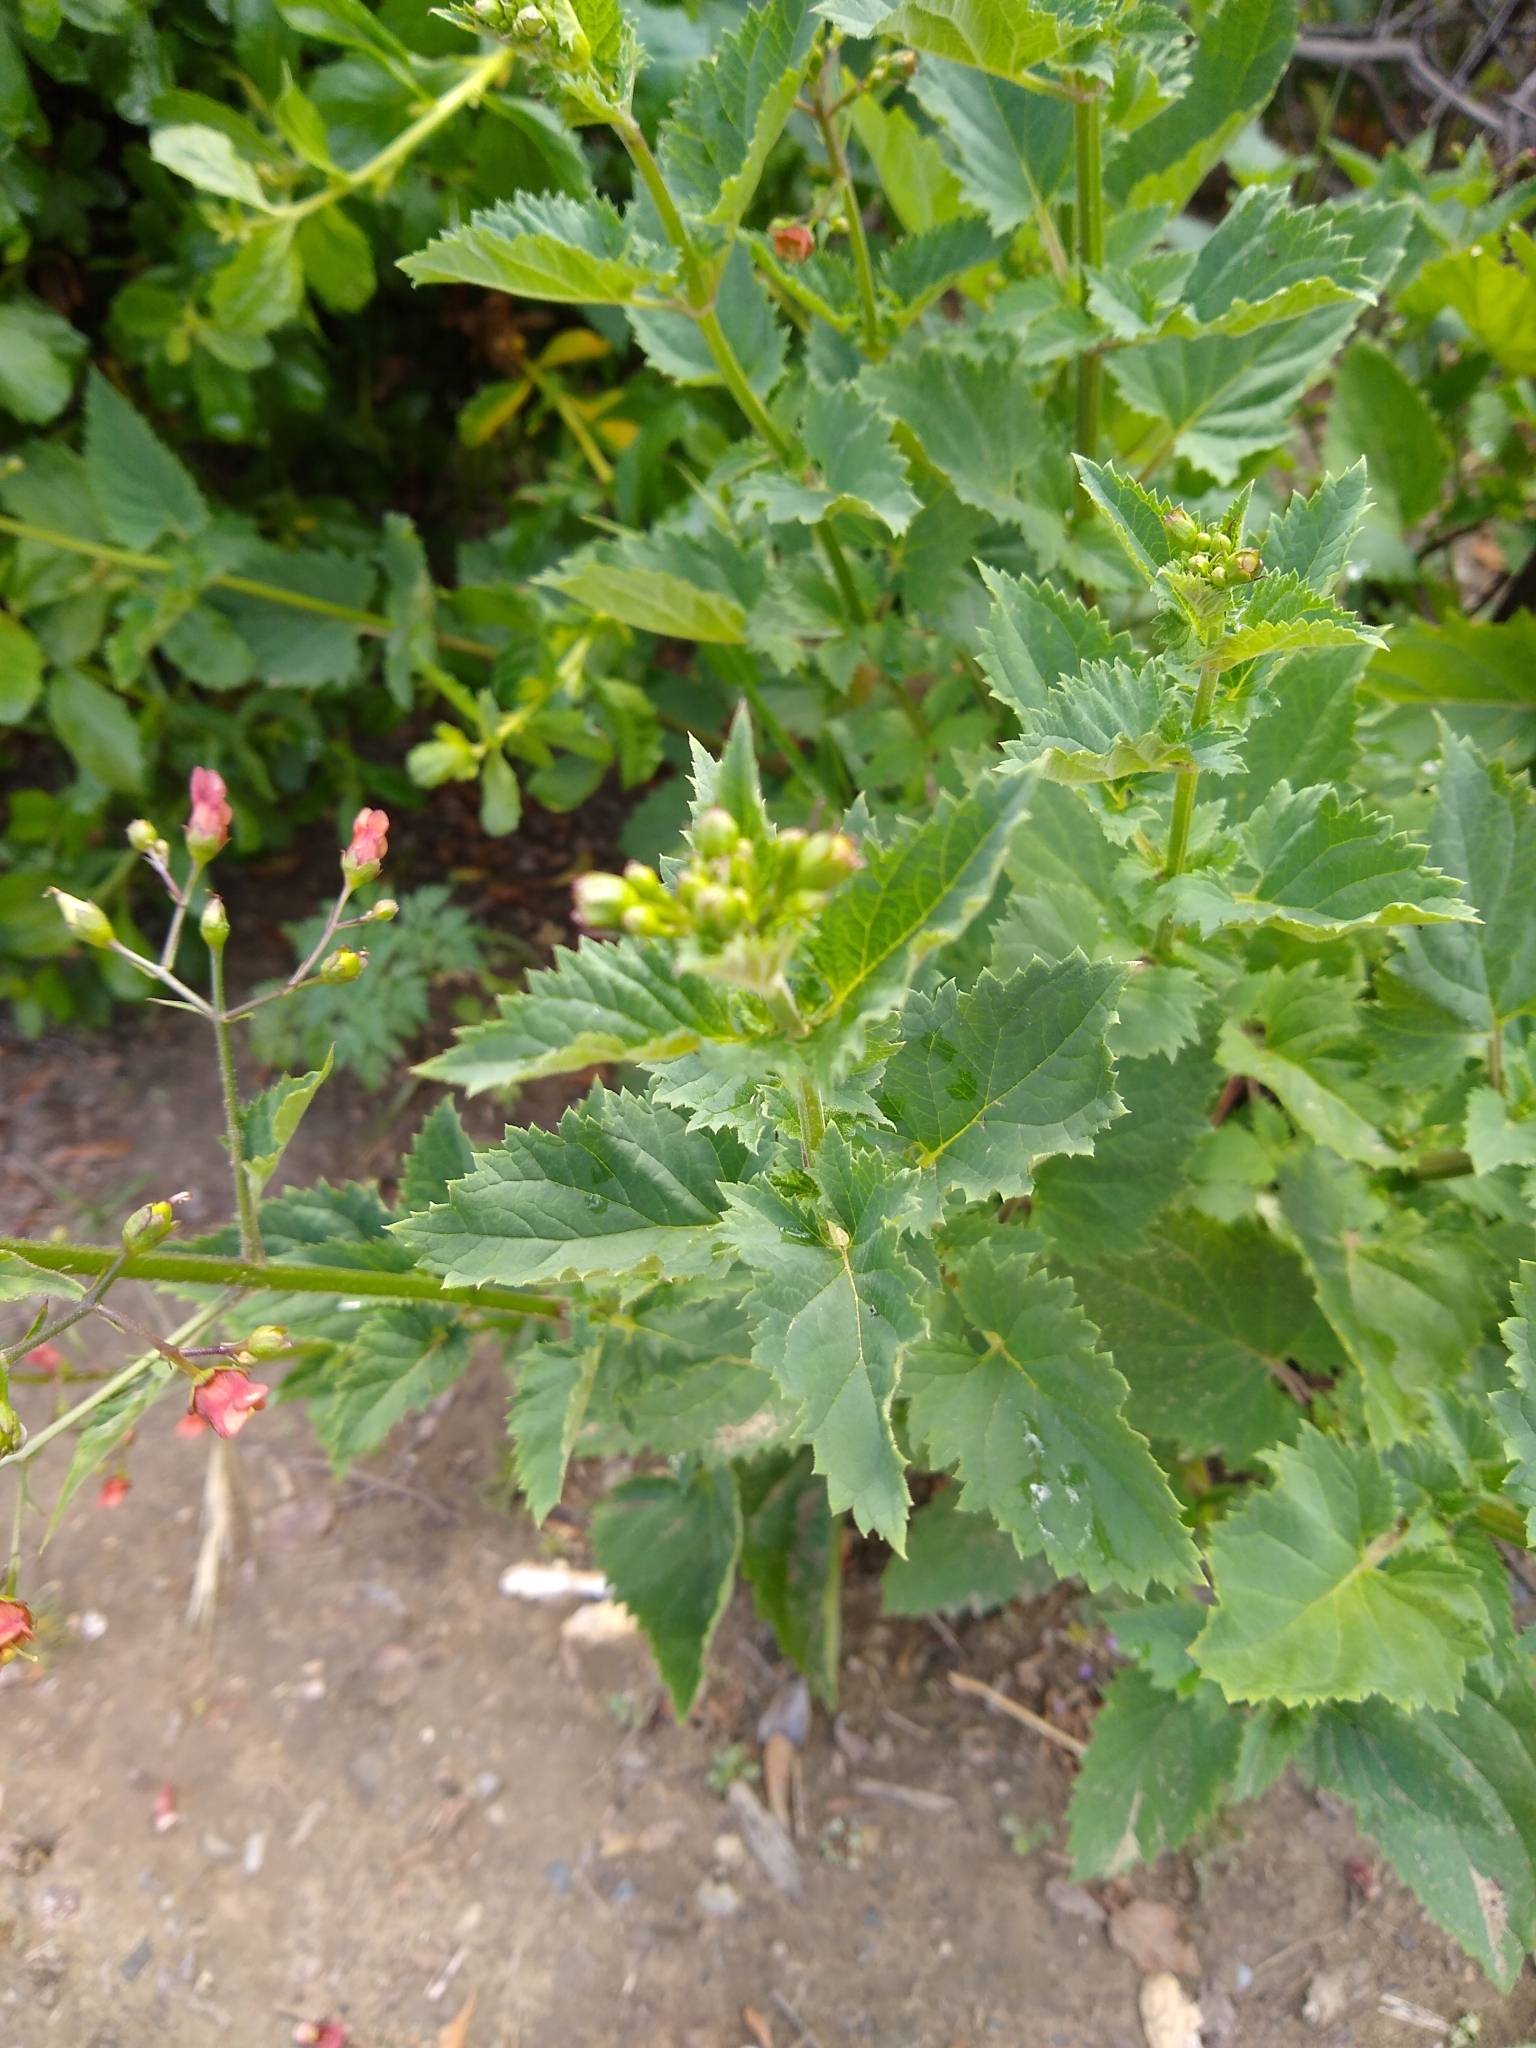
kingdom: Plantae
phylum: Tracheophyta
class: Magnoliopsida
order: Lamiales
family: Scrophulariaceae
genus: Scrophularia
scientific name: Scrophularia californica
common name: California figwort
